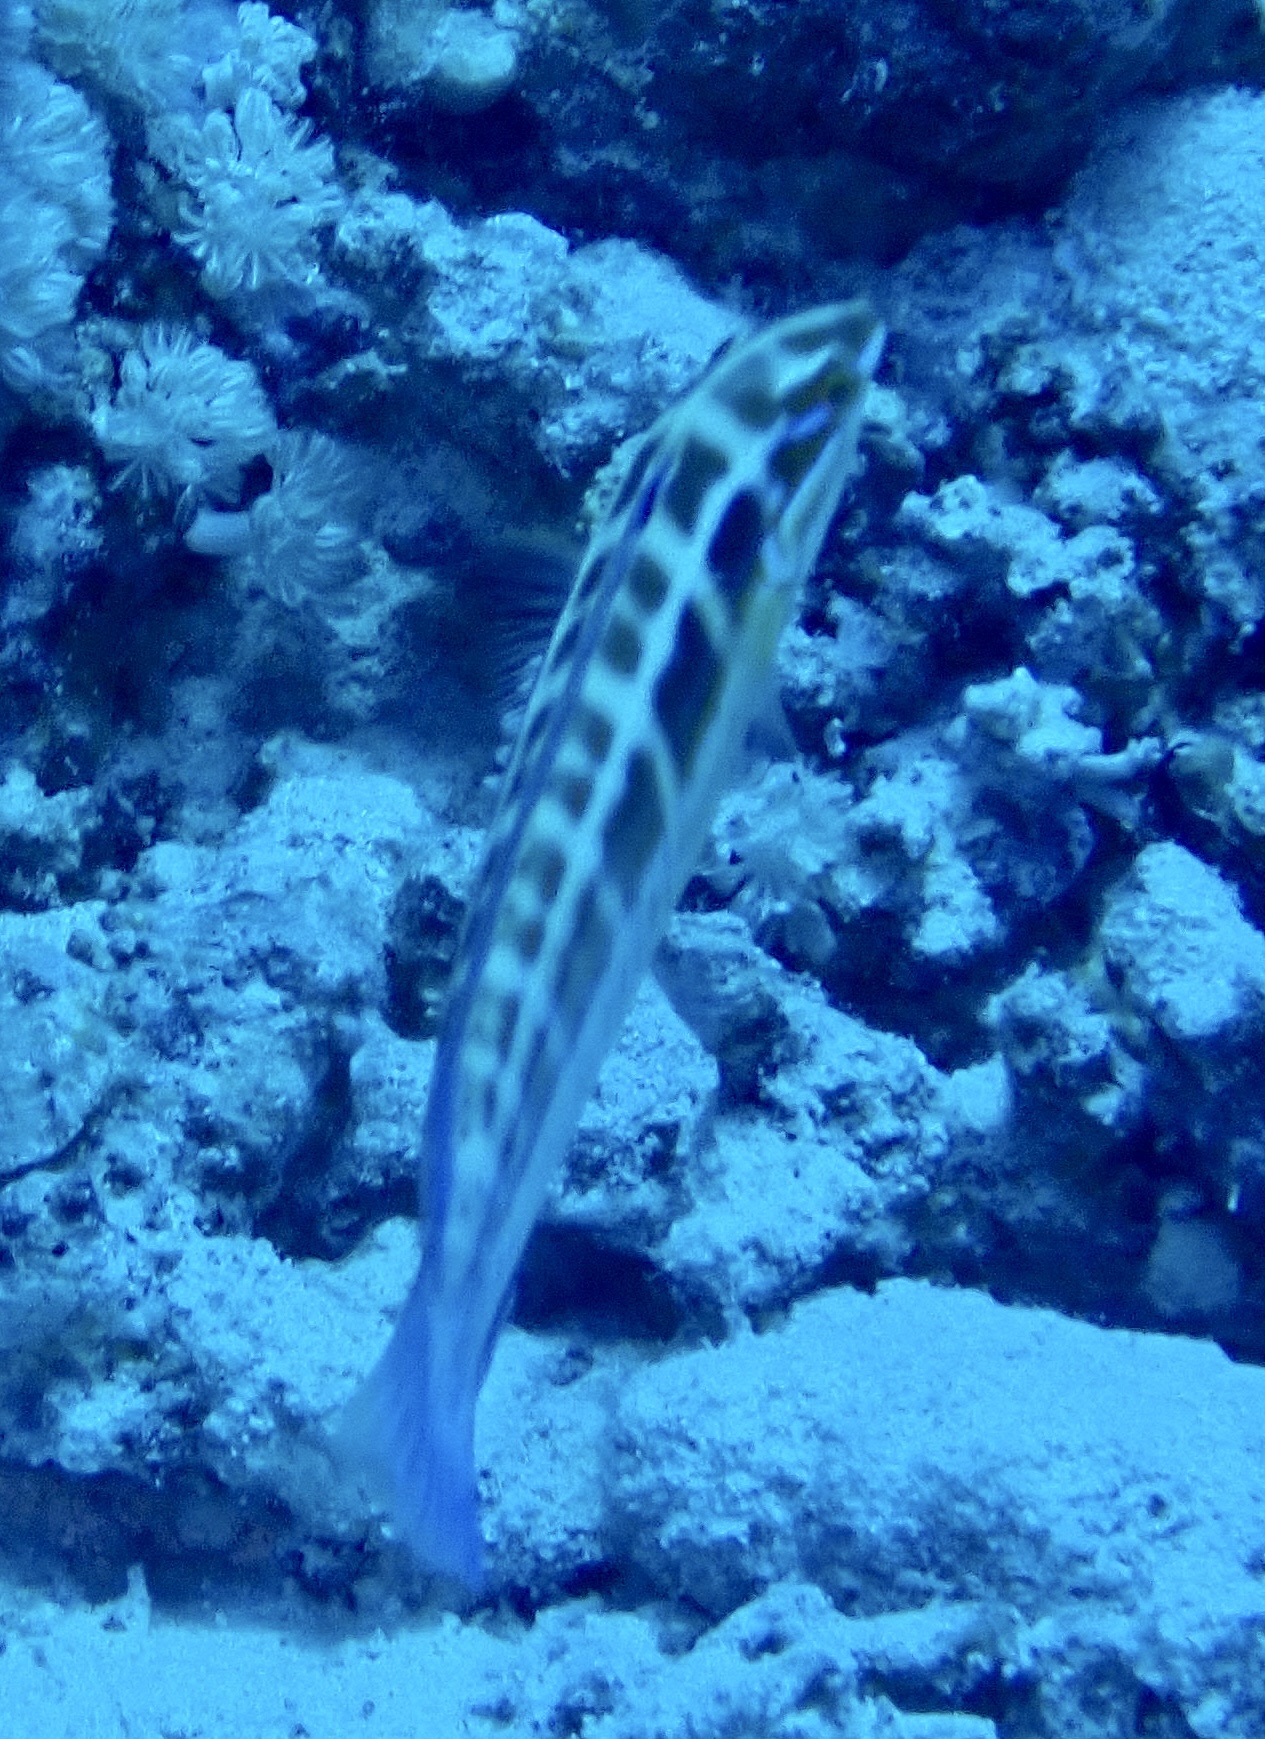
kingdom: Animalia
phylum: Chordata
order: Perciformes
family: Labridae
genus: Coris
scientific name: Coris caudimacula
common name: Spottail coris
